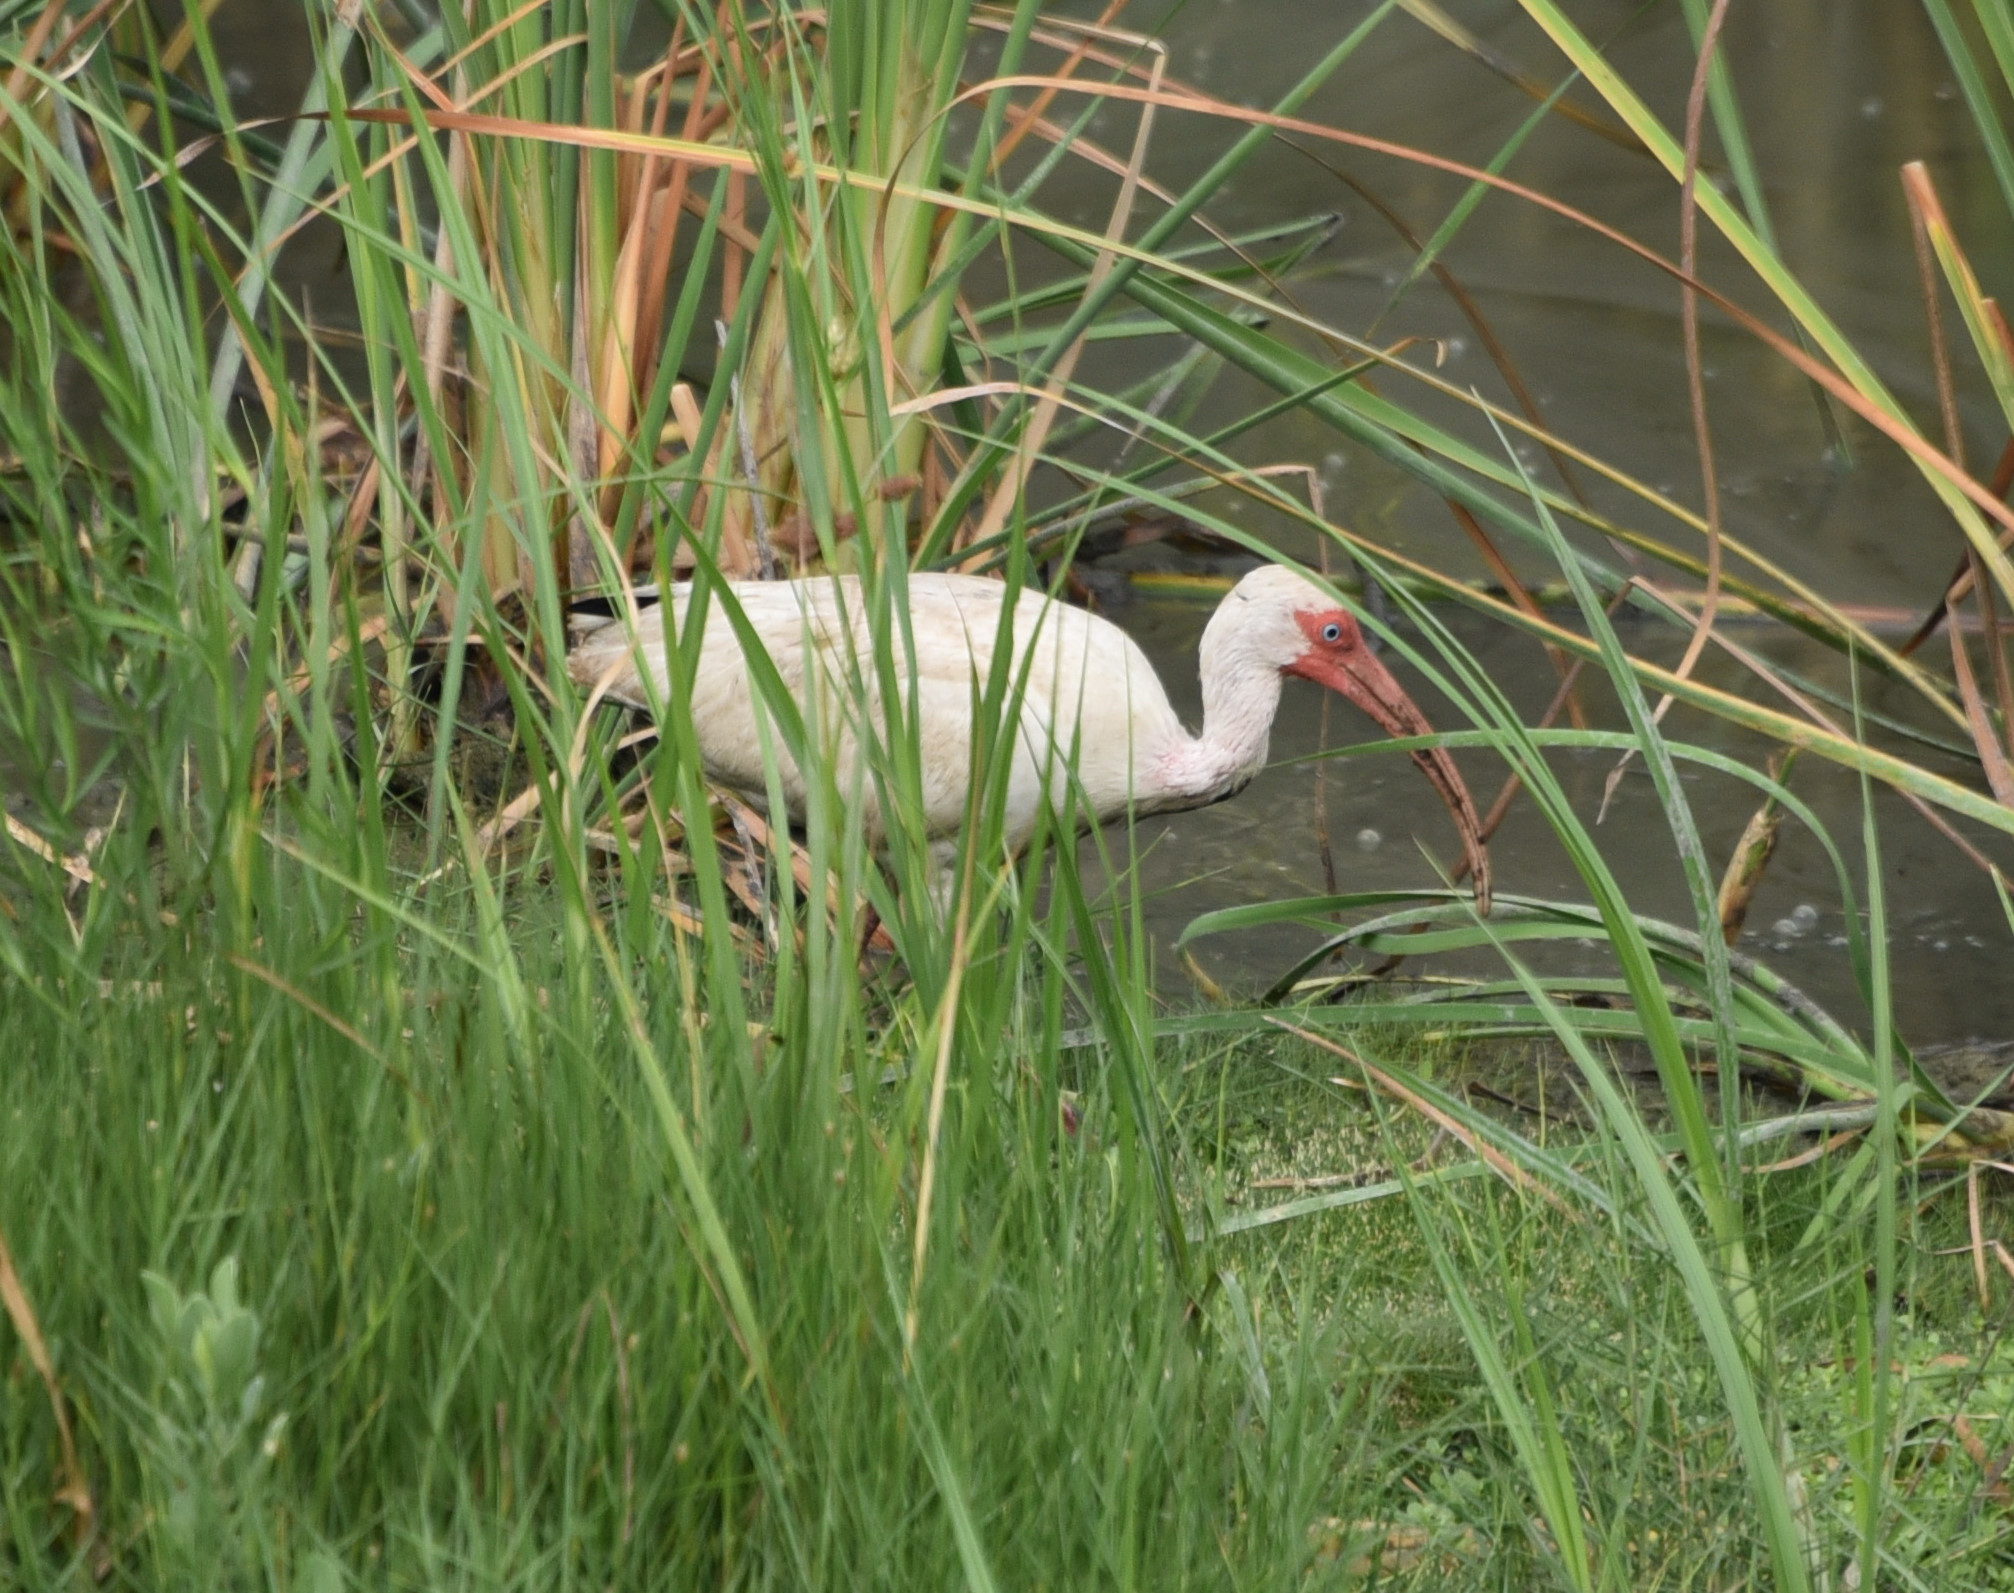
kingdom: Animalia
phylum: Chordata
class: Aves
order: Pelecaniformes
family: Threskiornithidae
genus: Eudocimus
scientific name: Eudocimus albus
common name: White ibis
